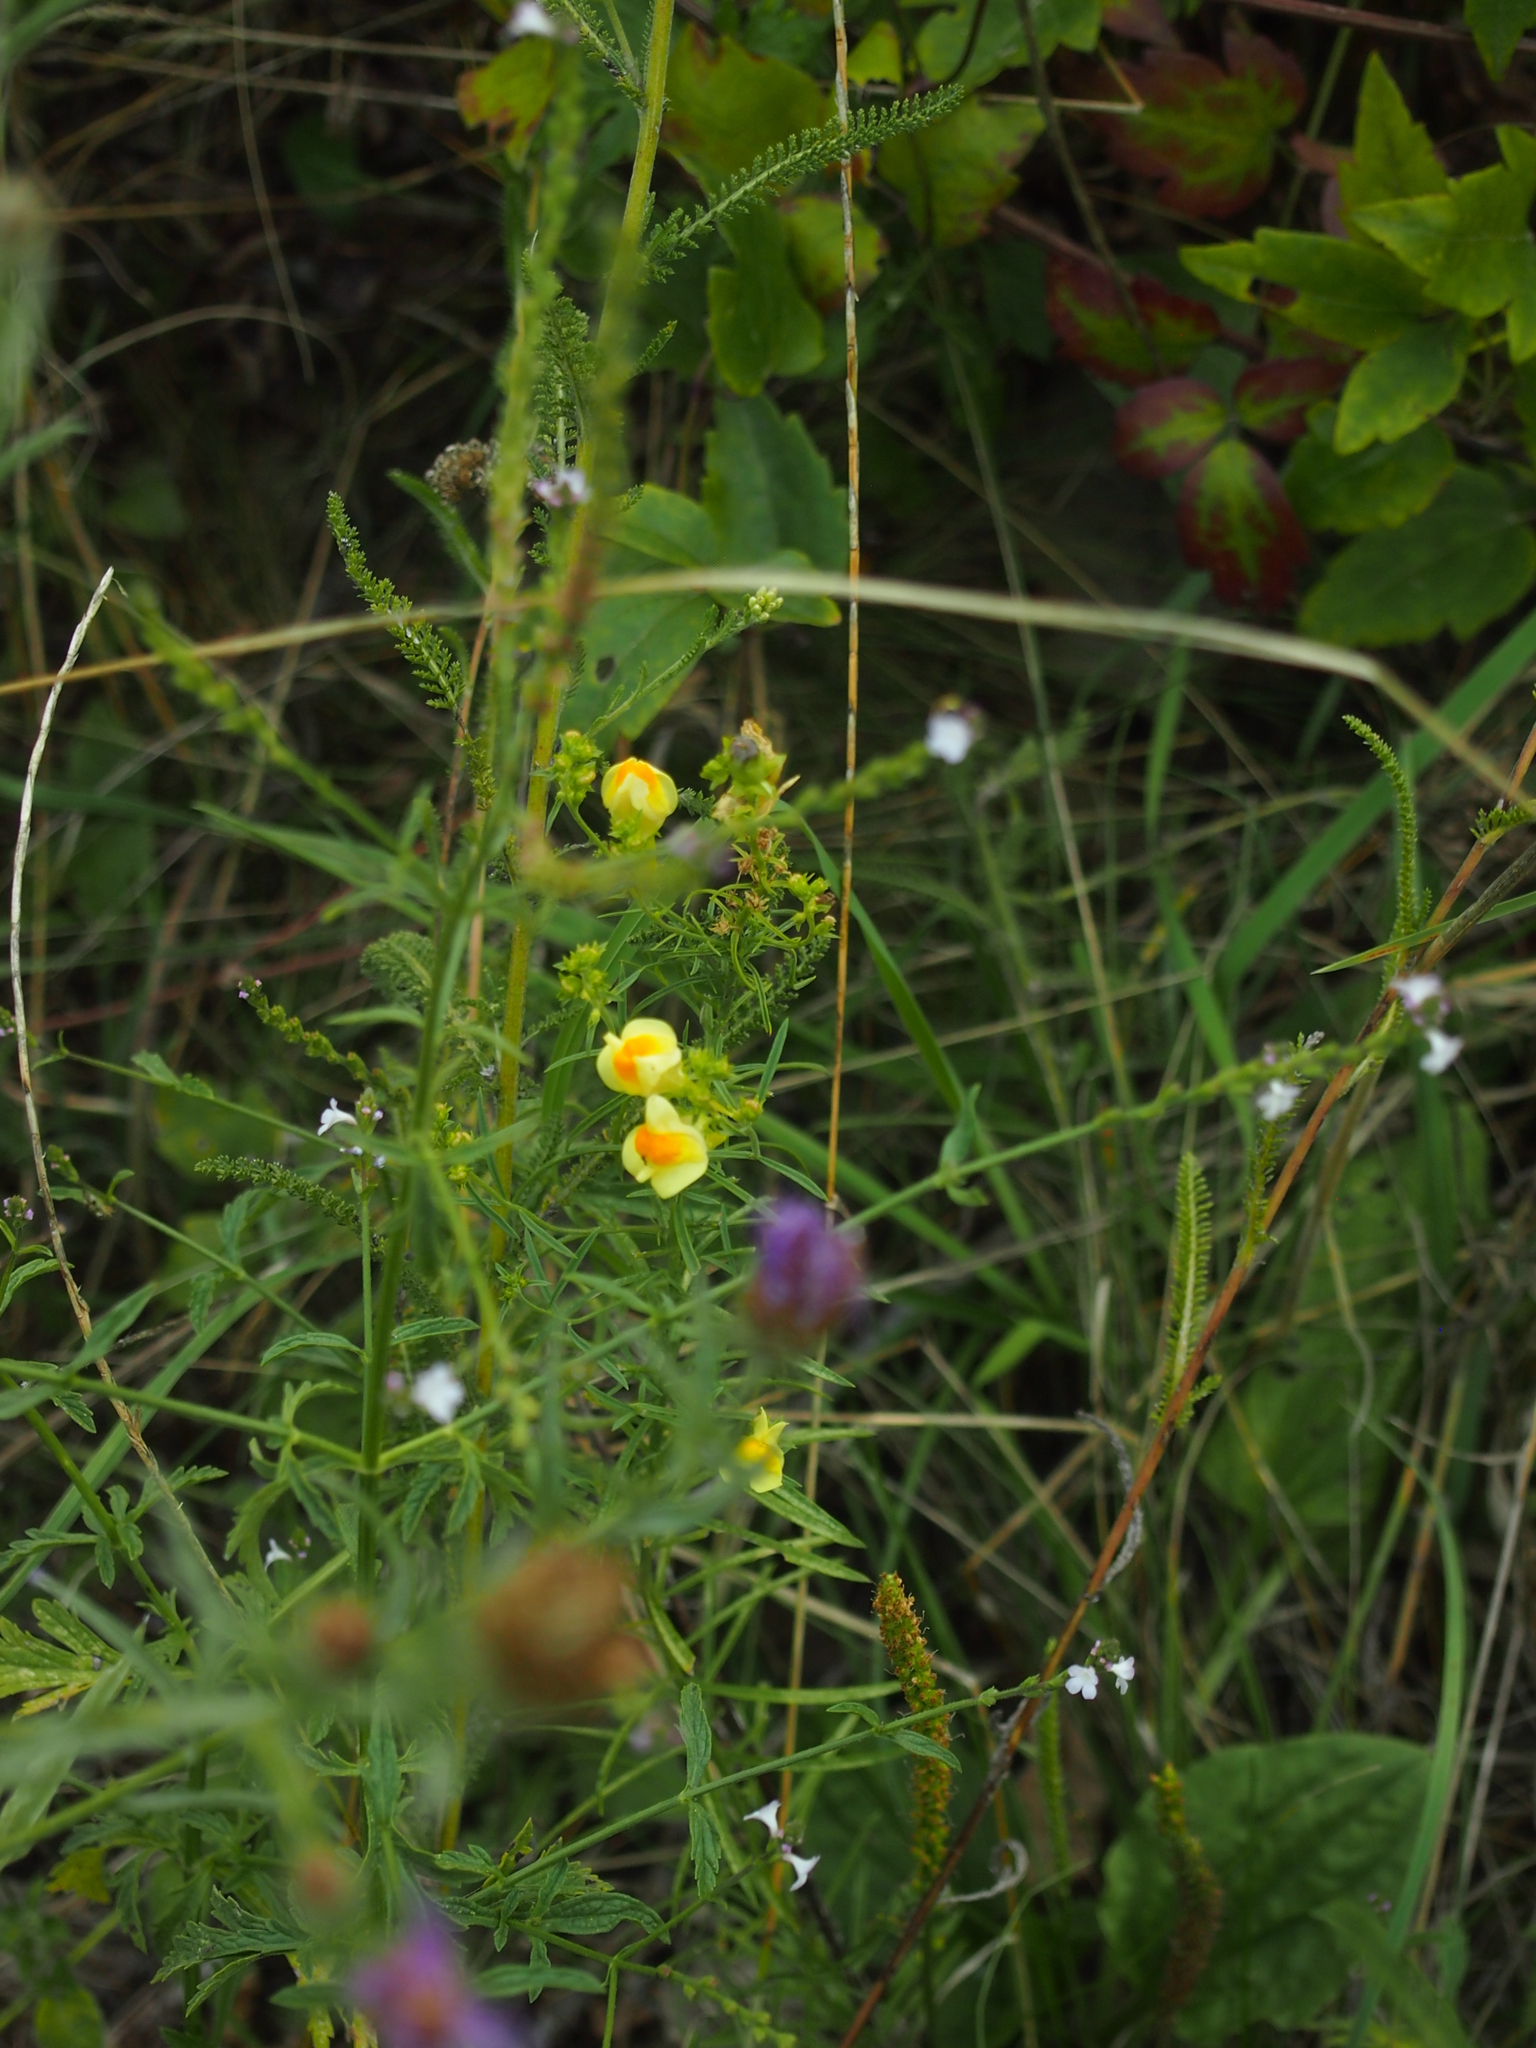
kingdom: Plantae
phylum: Tracheophyta
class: Magnoliopsida
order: Lamiales
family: Plantaginaceae
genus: Linaria
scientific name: Linaria vulgaris
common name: Butter and eggs
